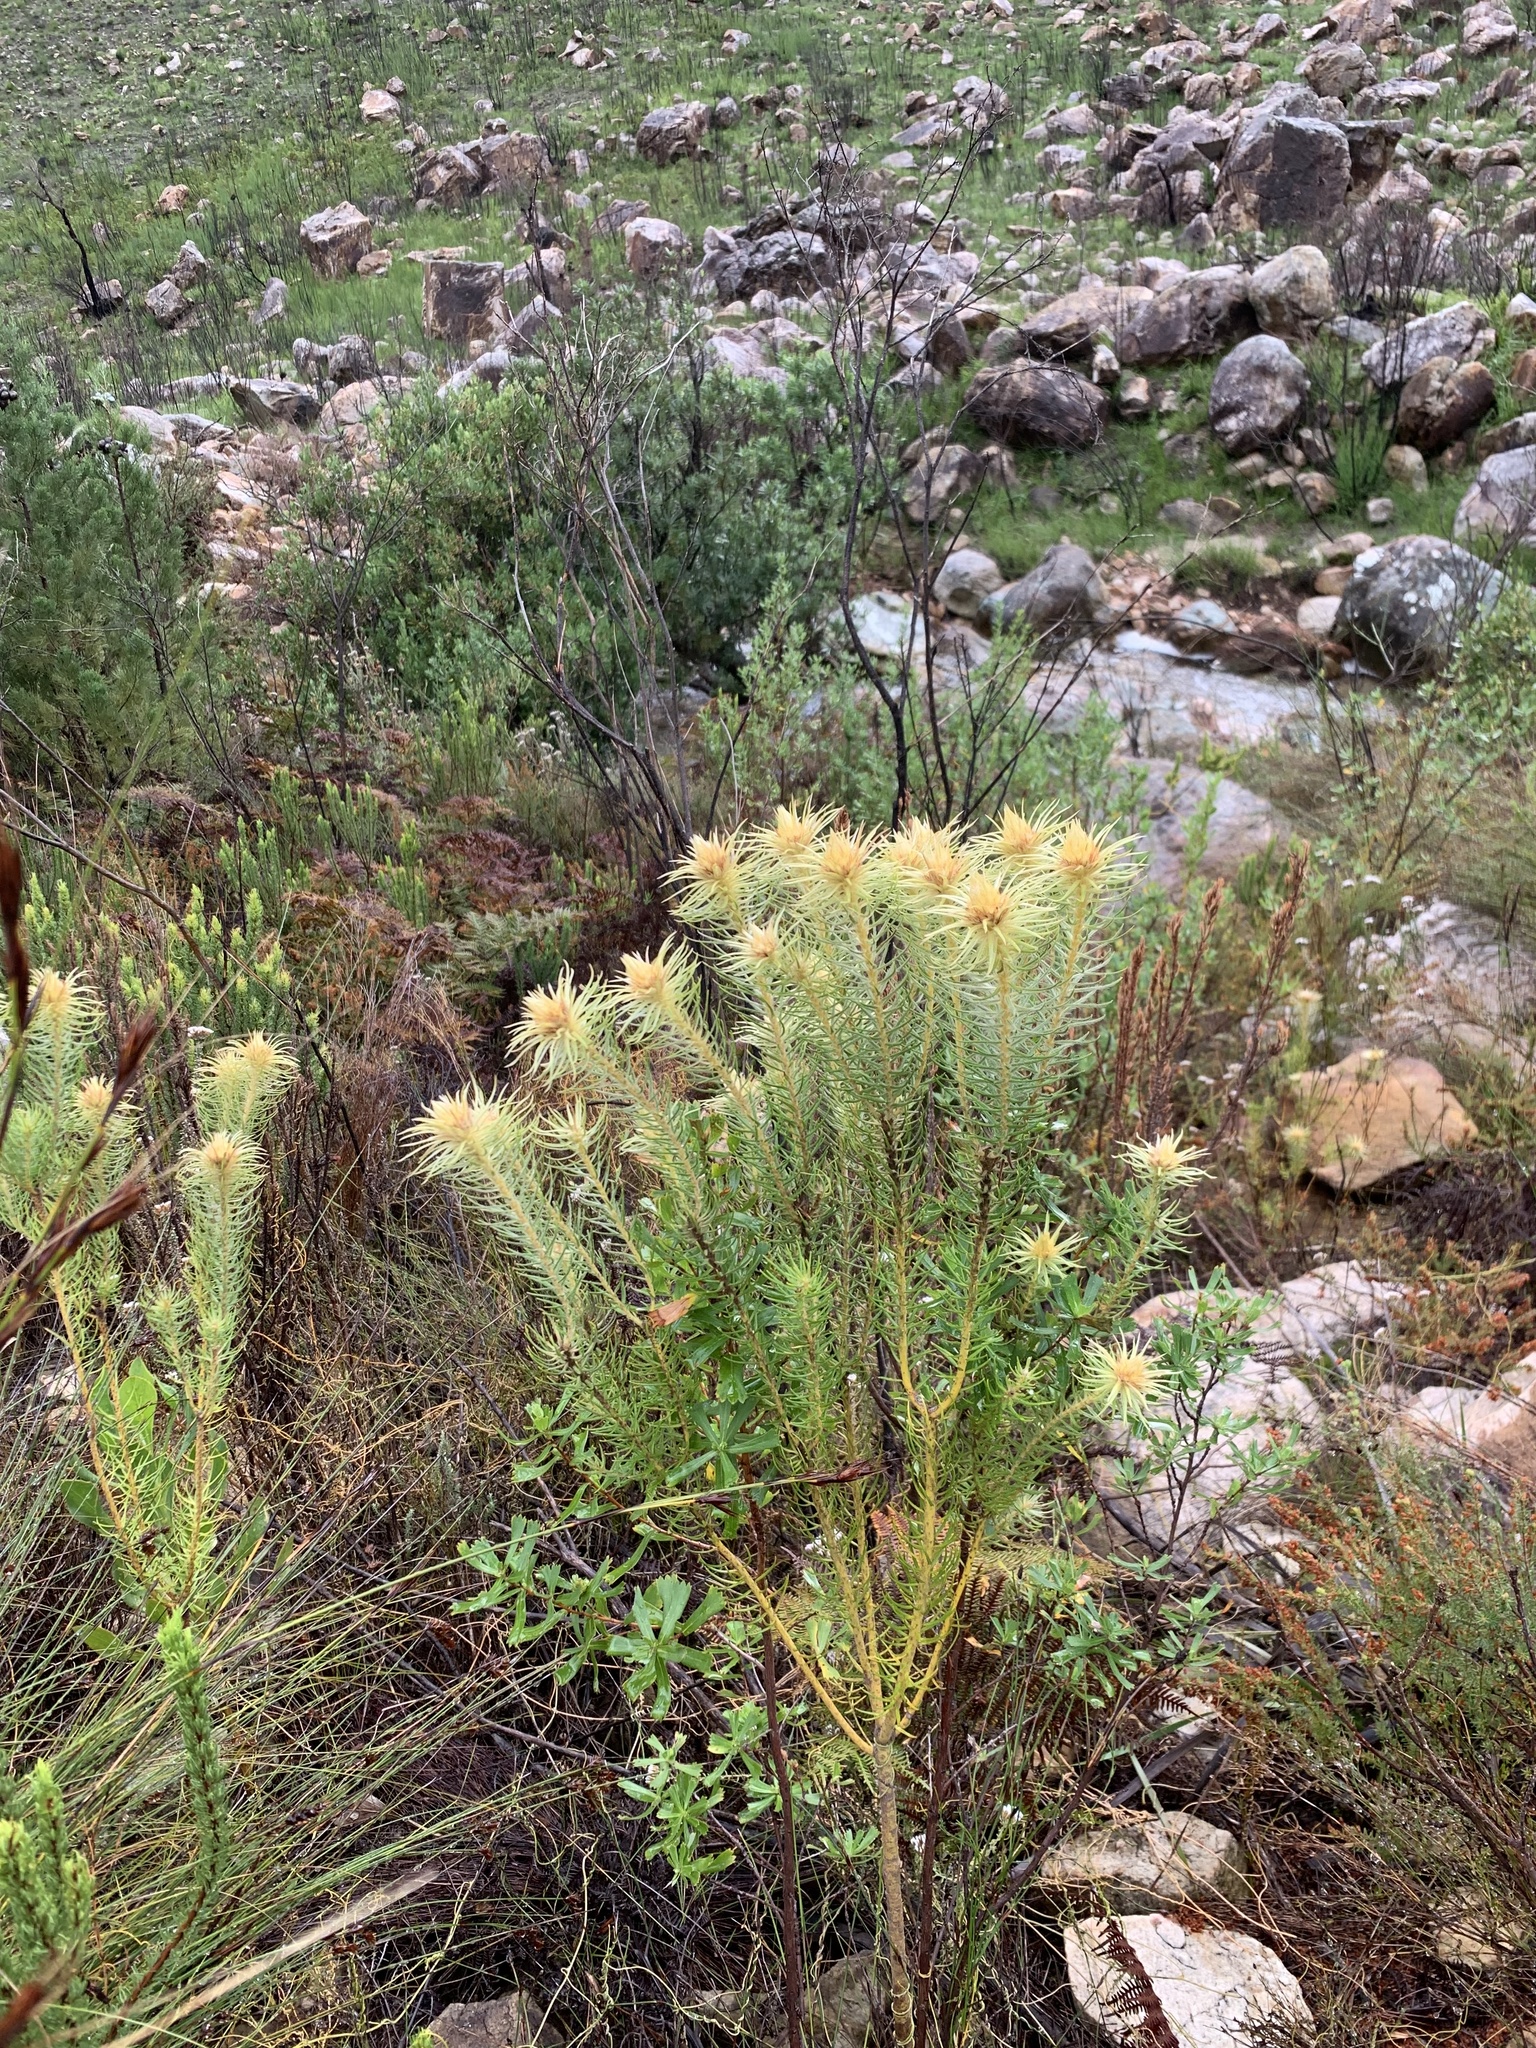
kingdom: Plantae
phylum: Tracheophyta
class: Magnoliopsida
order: Rosales
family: Rhamnaceae
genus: Phylica
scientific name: Phylica pubescens
